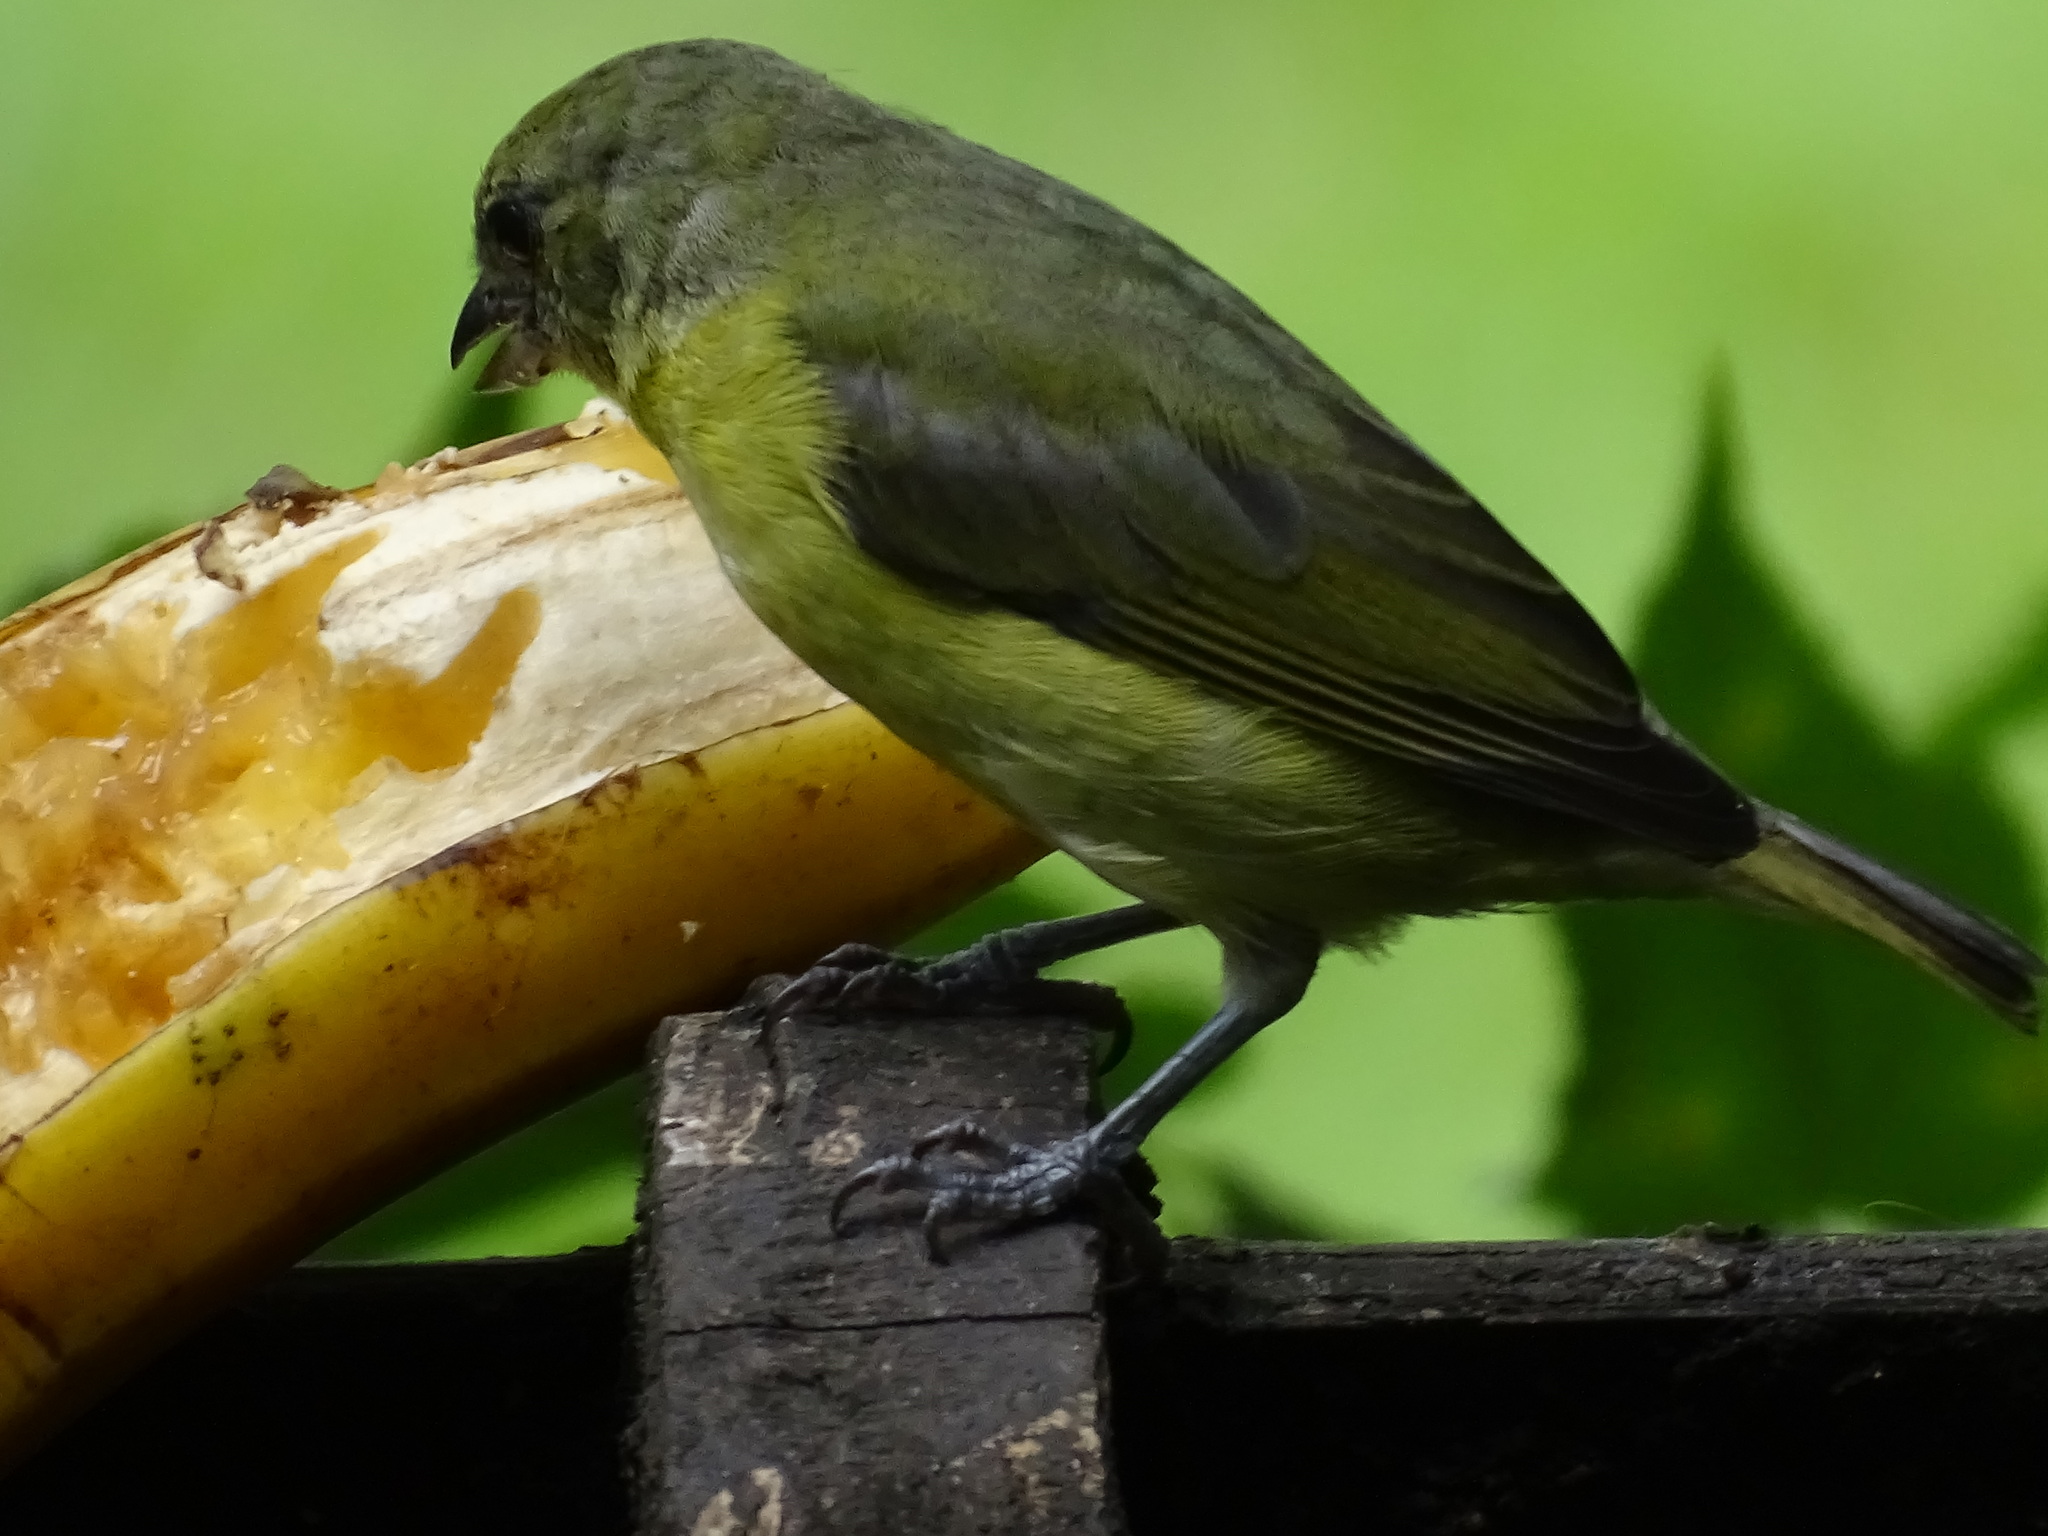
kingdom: Animalia
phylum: Chordata
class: Aves
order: Passeriformes
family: Fringillidae
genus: Euphonia
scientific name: Euphonia laniirostris
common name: Thick-billed euphonia
